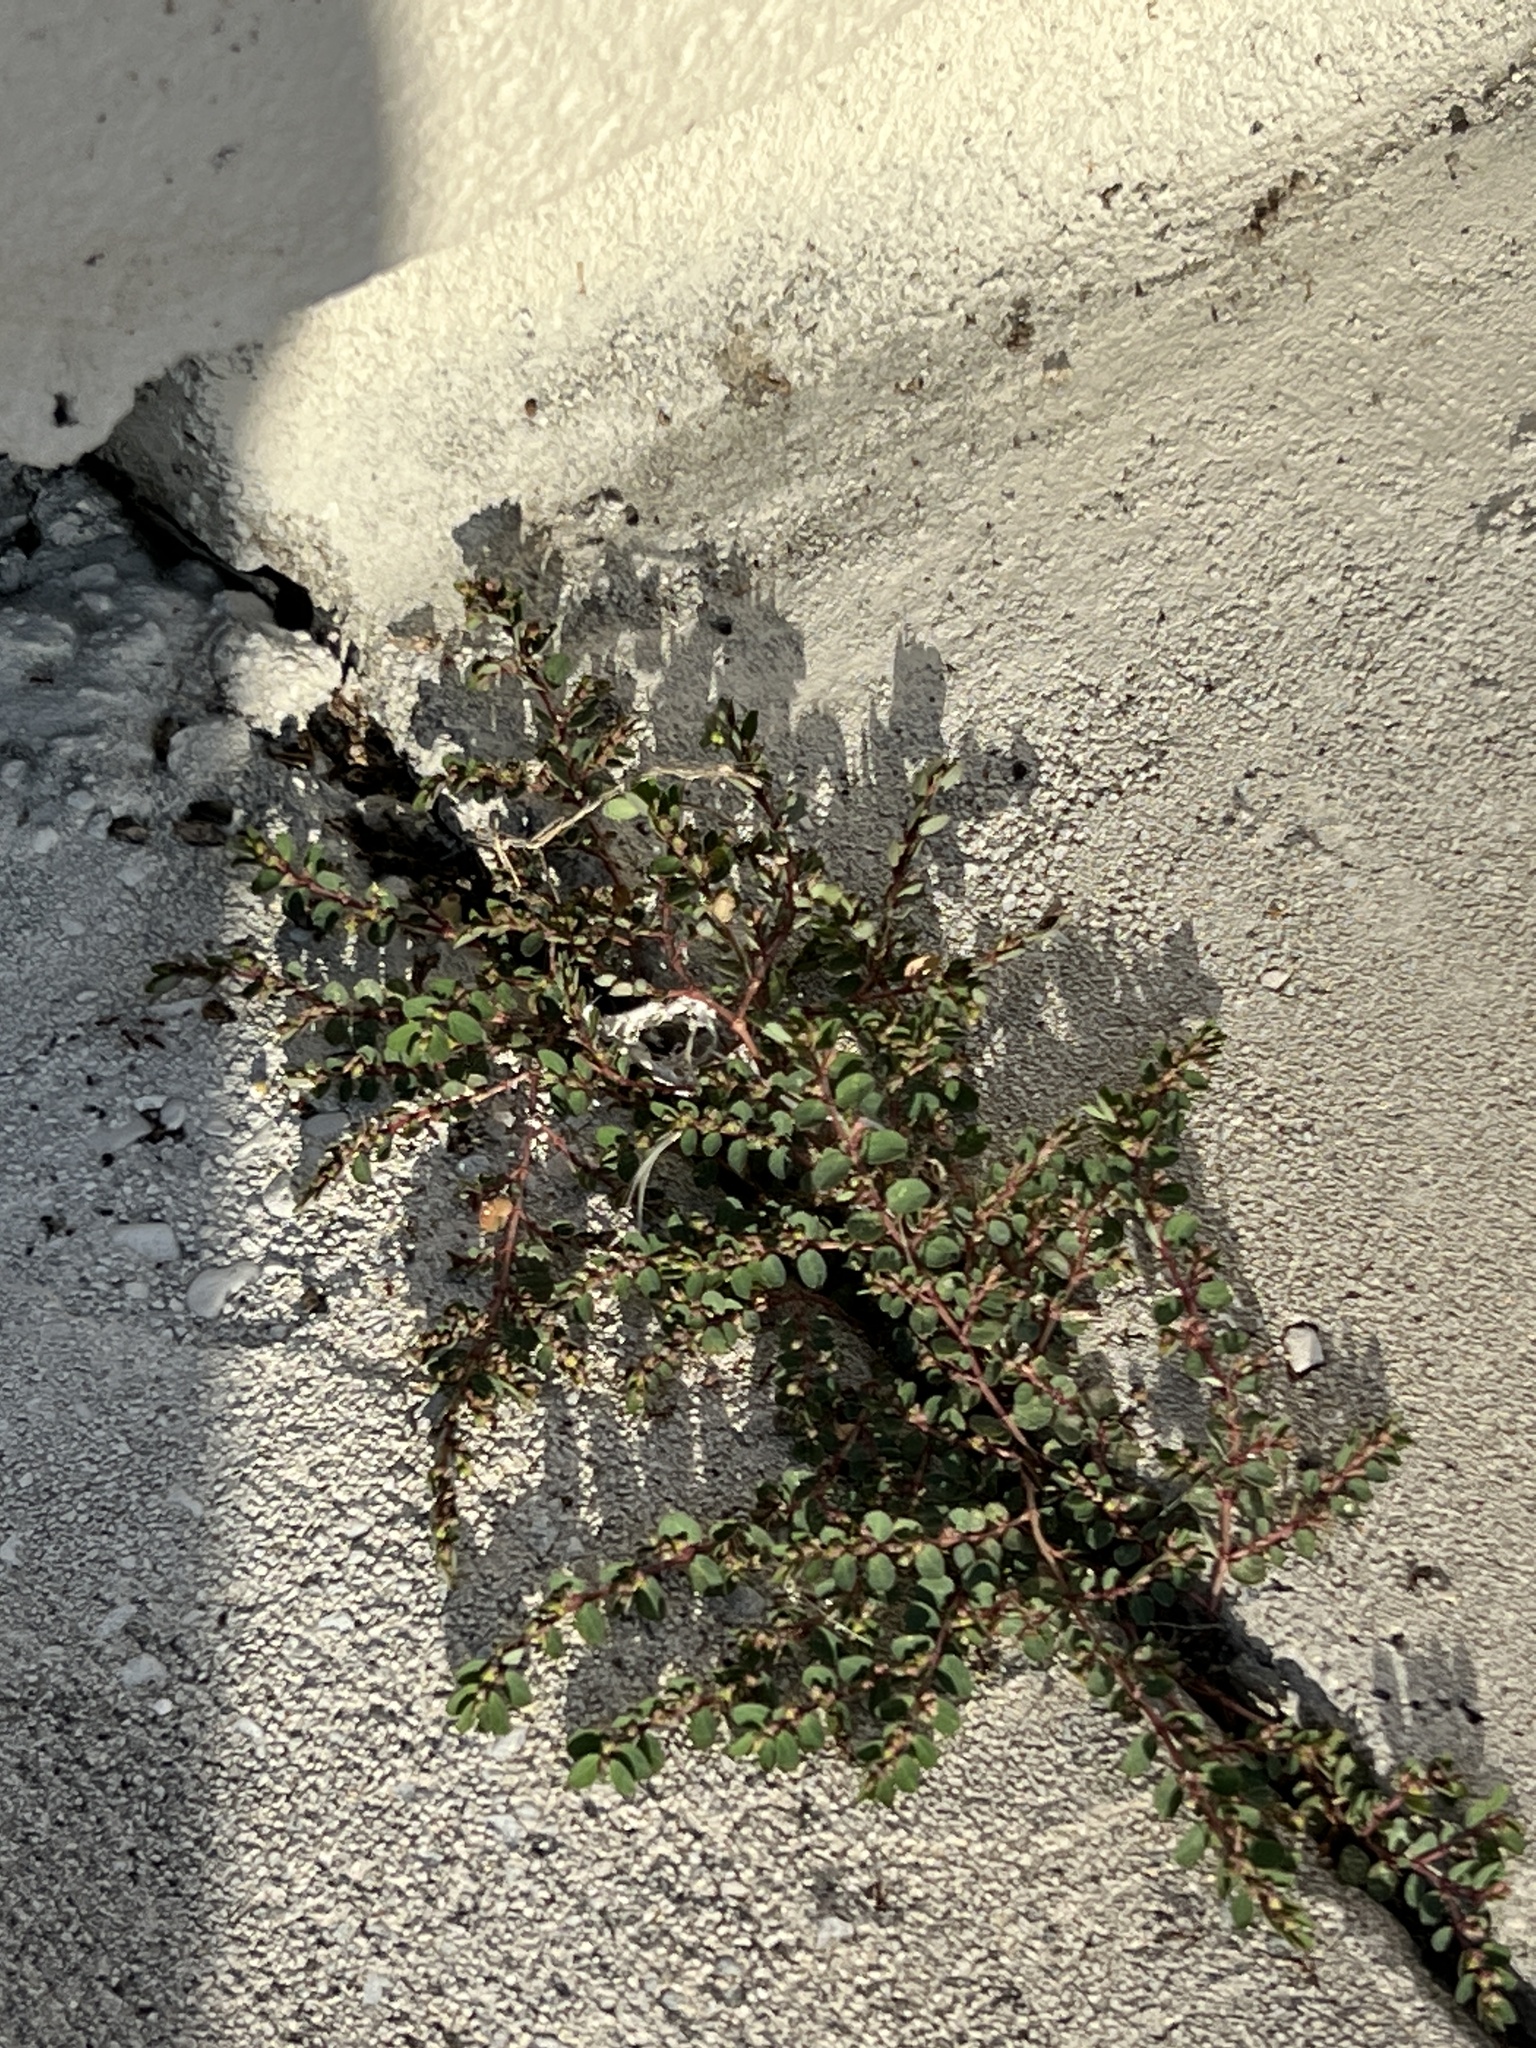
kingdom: Plantae
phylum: Tracheophyta
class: Magnoliopsida
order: Malpighiales
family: Euphorbiaceae
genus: Euphorbia
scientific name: Euphorbia prostrata
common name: Prostrate sandmat
